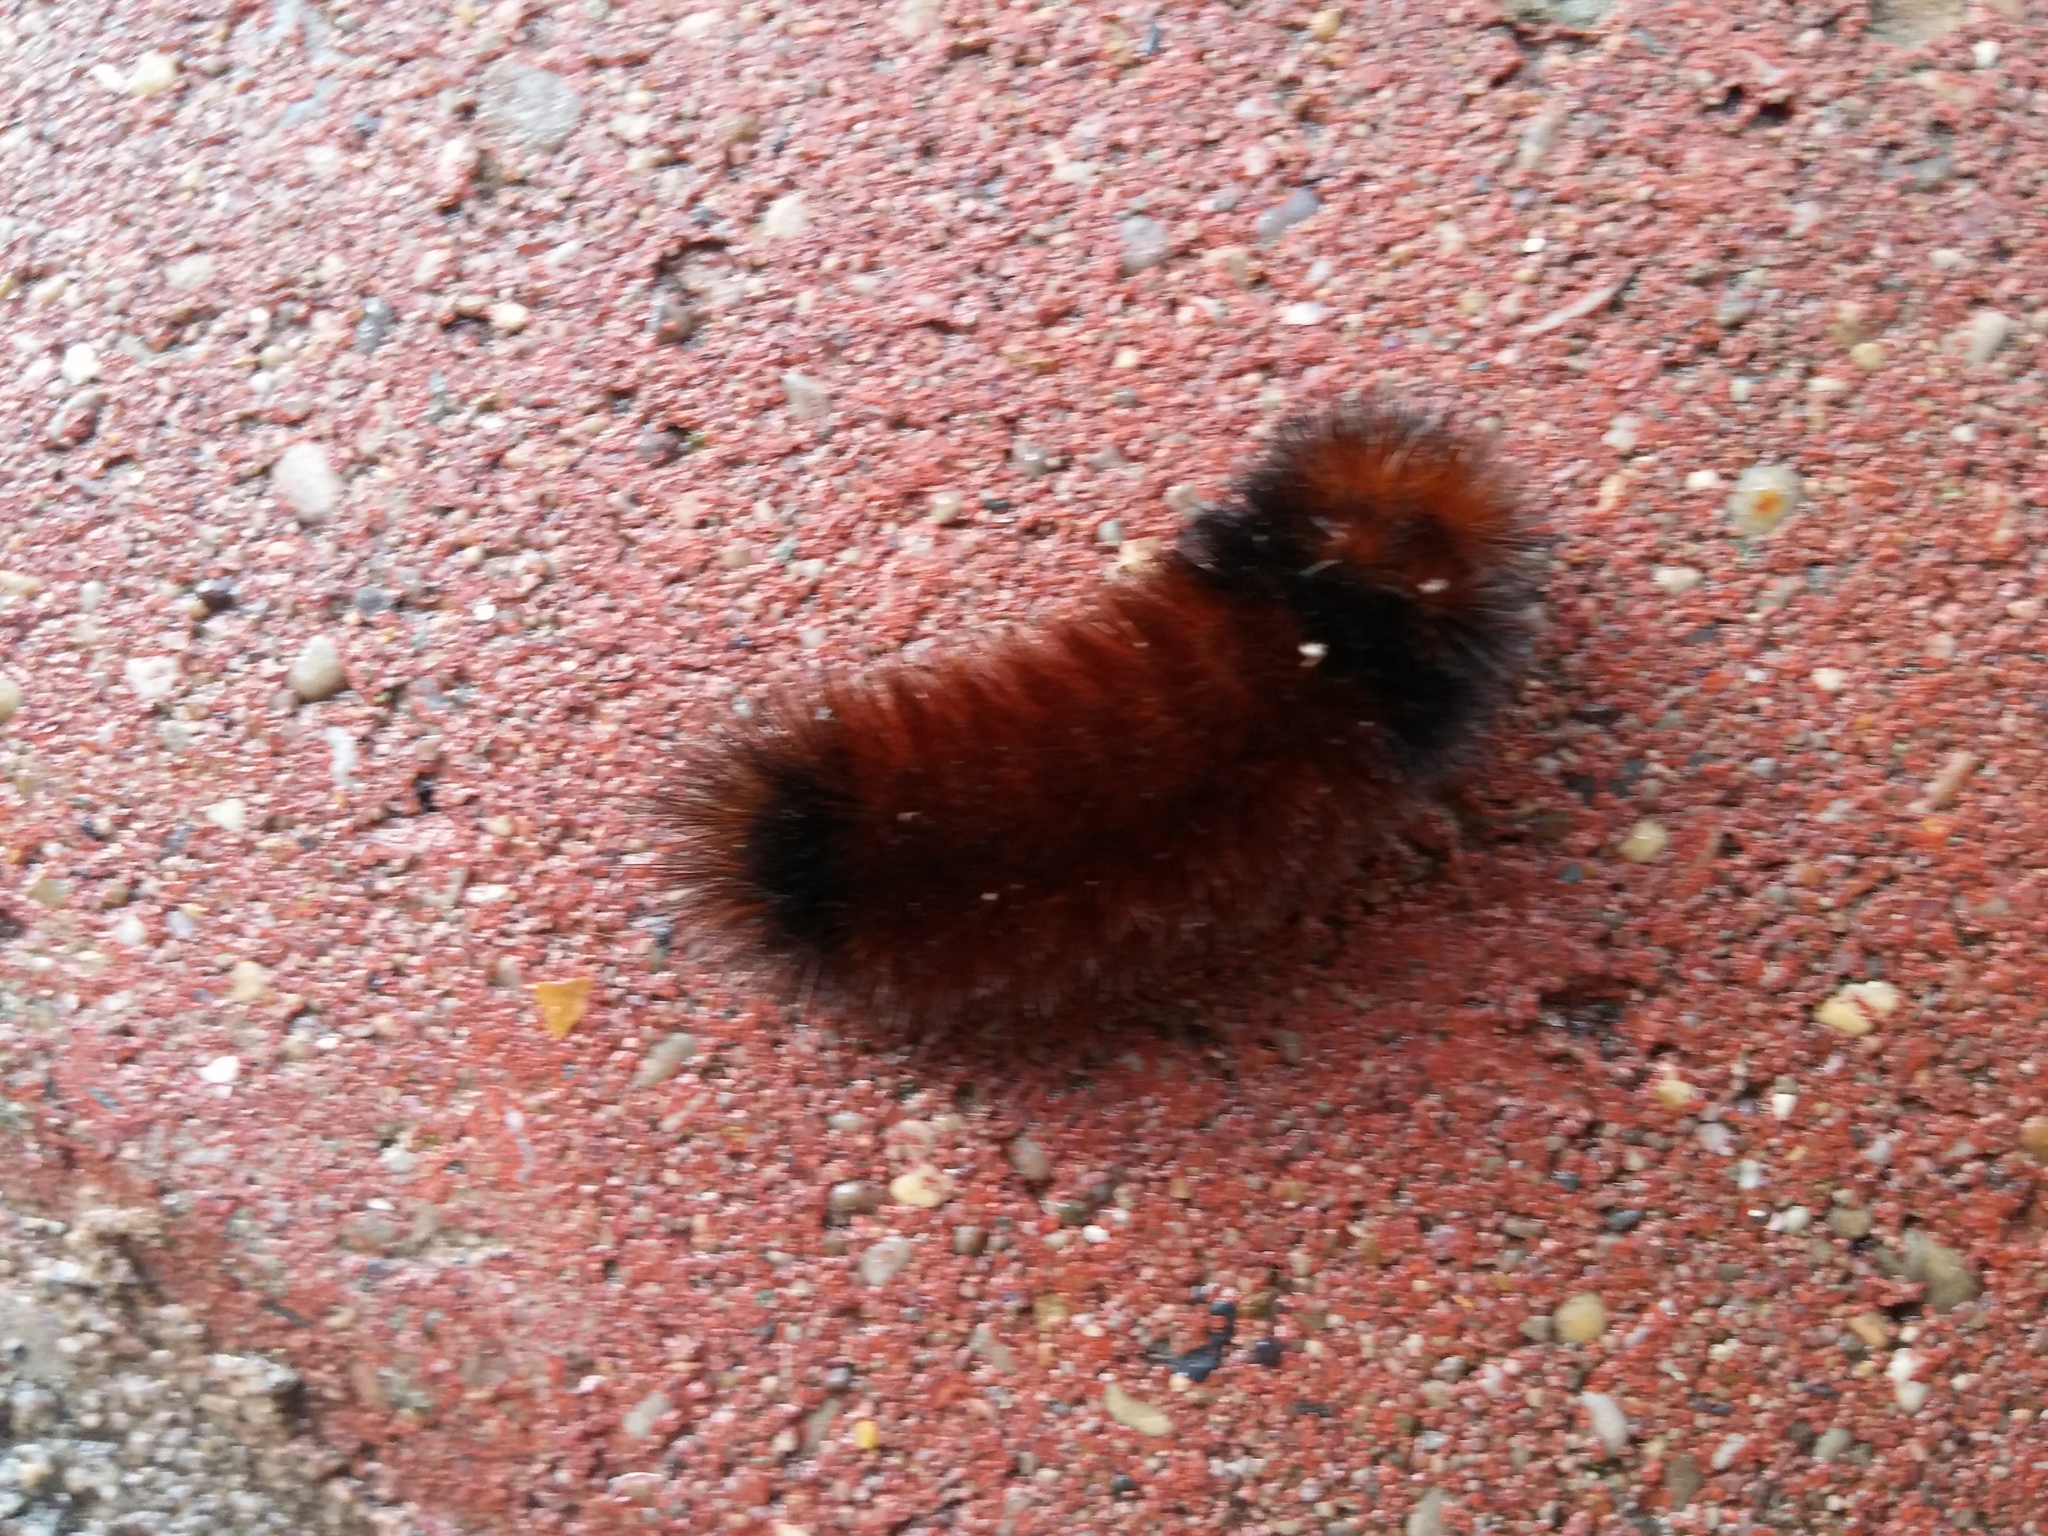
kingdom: Animalia
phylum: Arthropoda
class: Insecta
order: Lepidoptera
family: Erebidae
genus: Pyrrharctia
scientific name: Pyrrharctia isabella
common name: Isabella tiger moth
